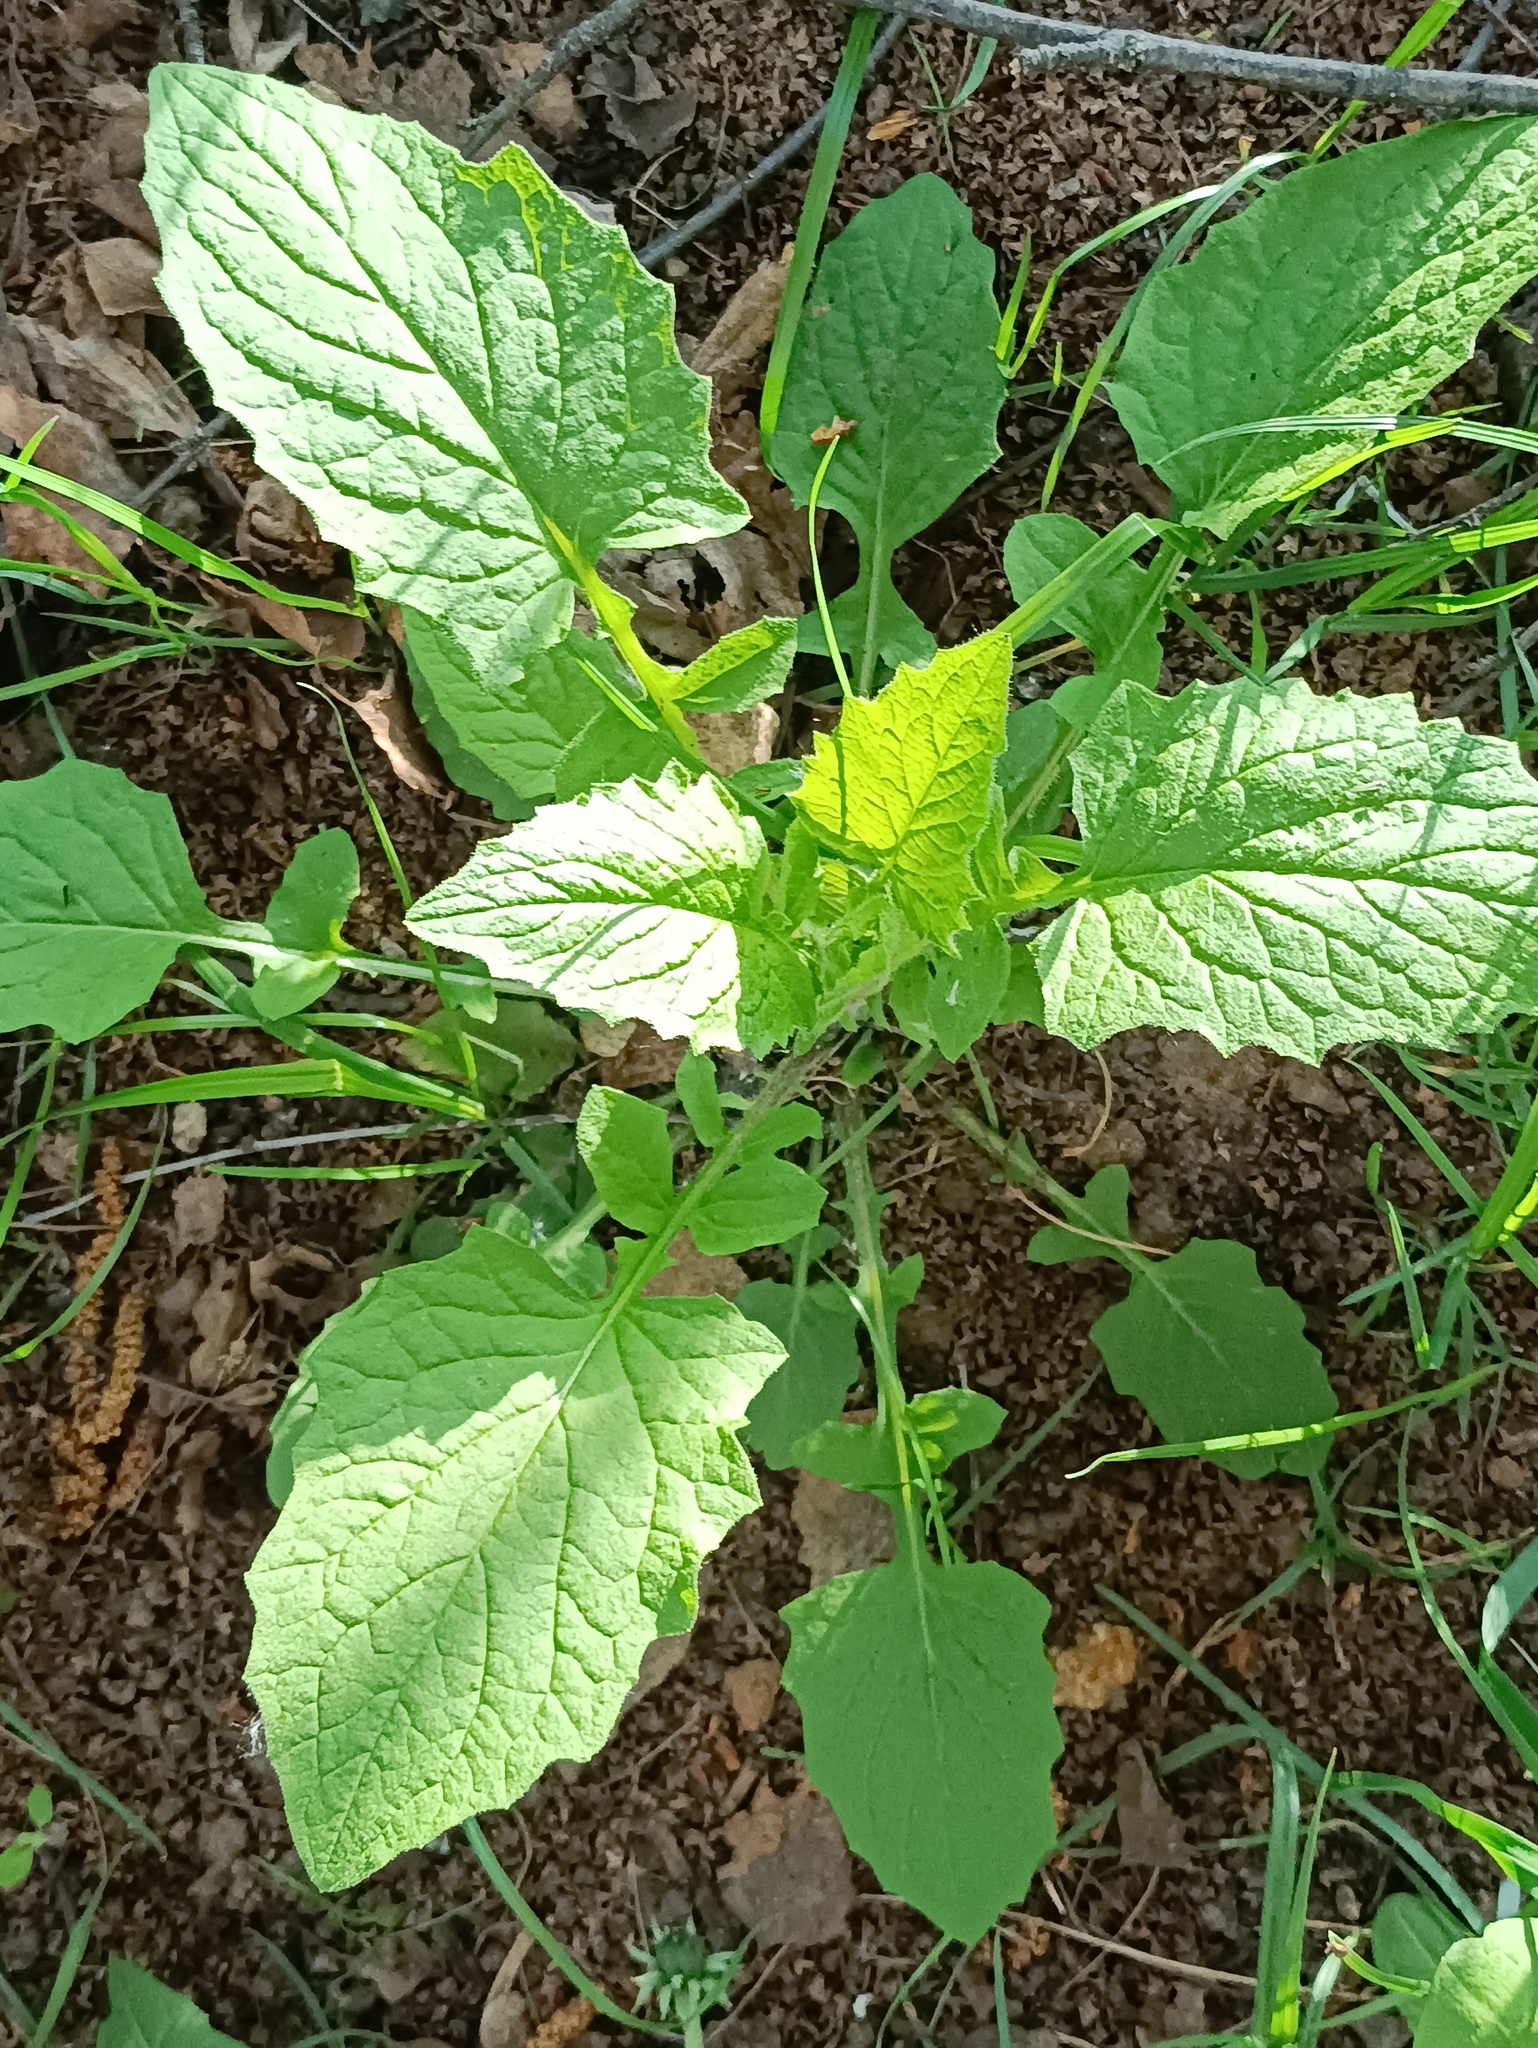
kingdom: Plantae
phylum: Tracheophyta
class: Magnoliopsida
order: Asterales
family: Asteraceae
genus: Lapsana
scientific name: Lapsana communis
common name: Nipplewort
